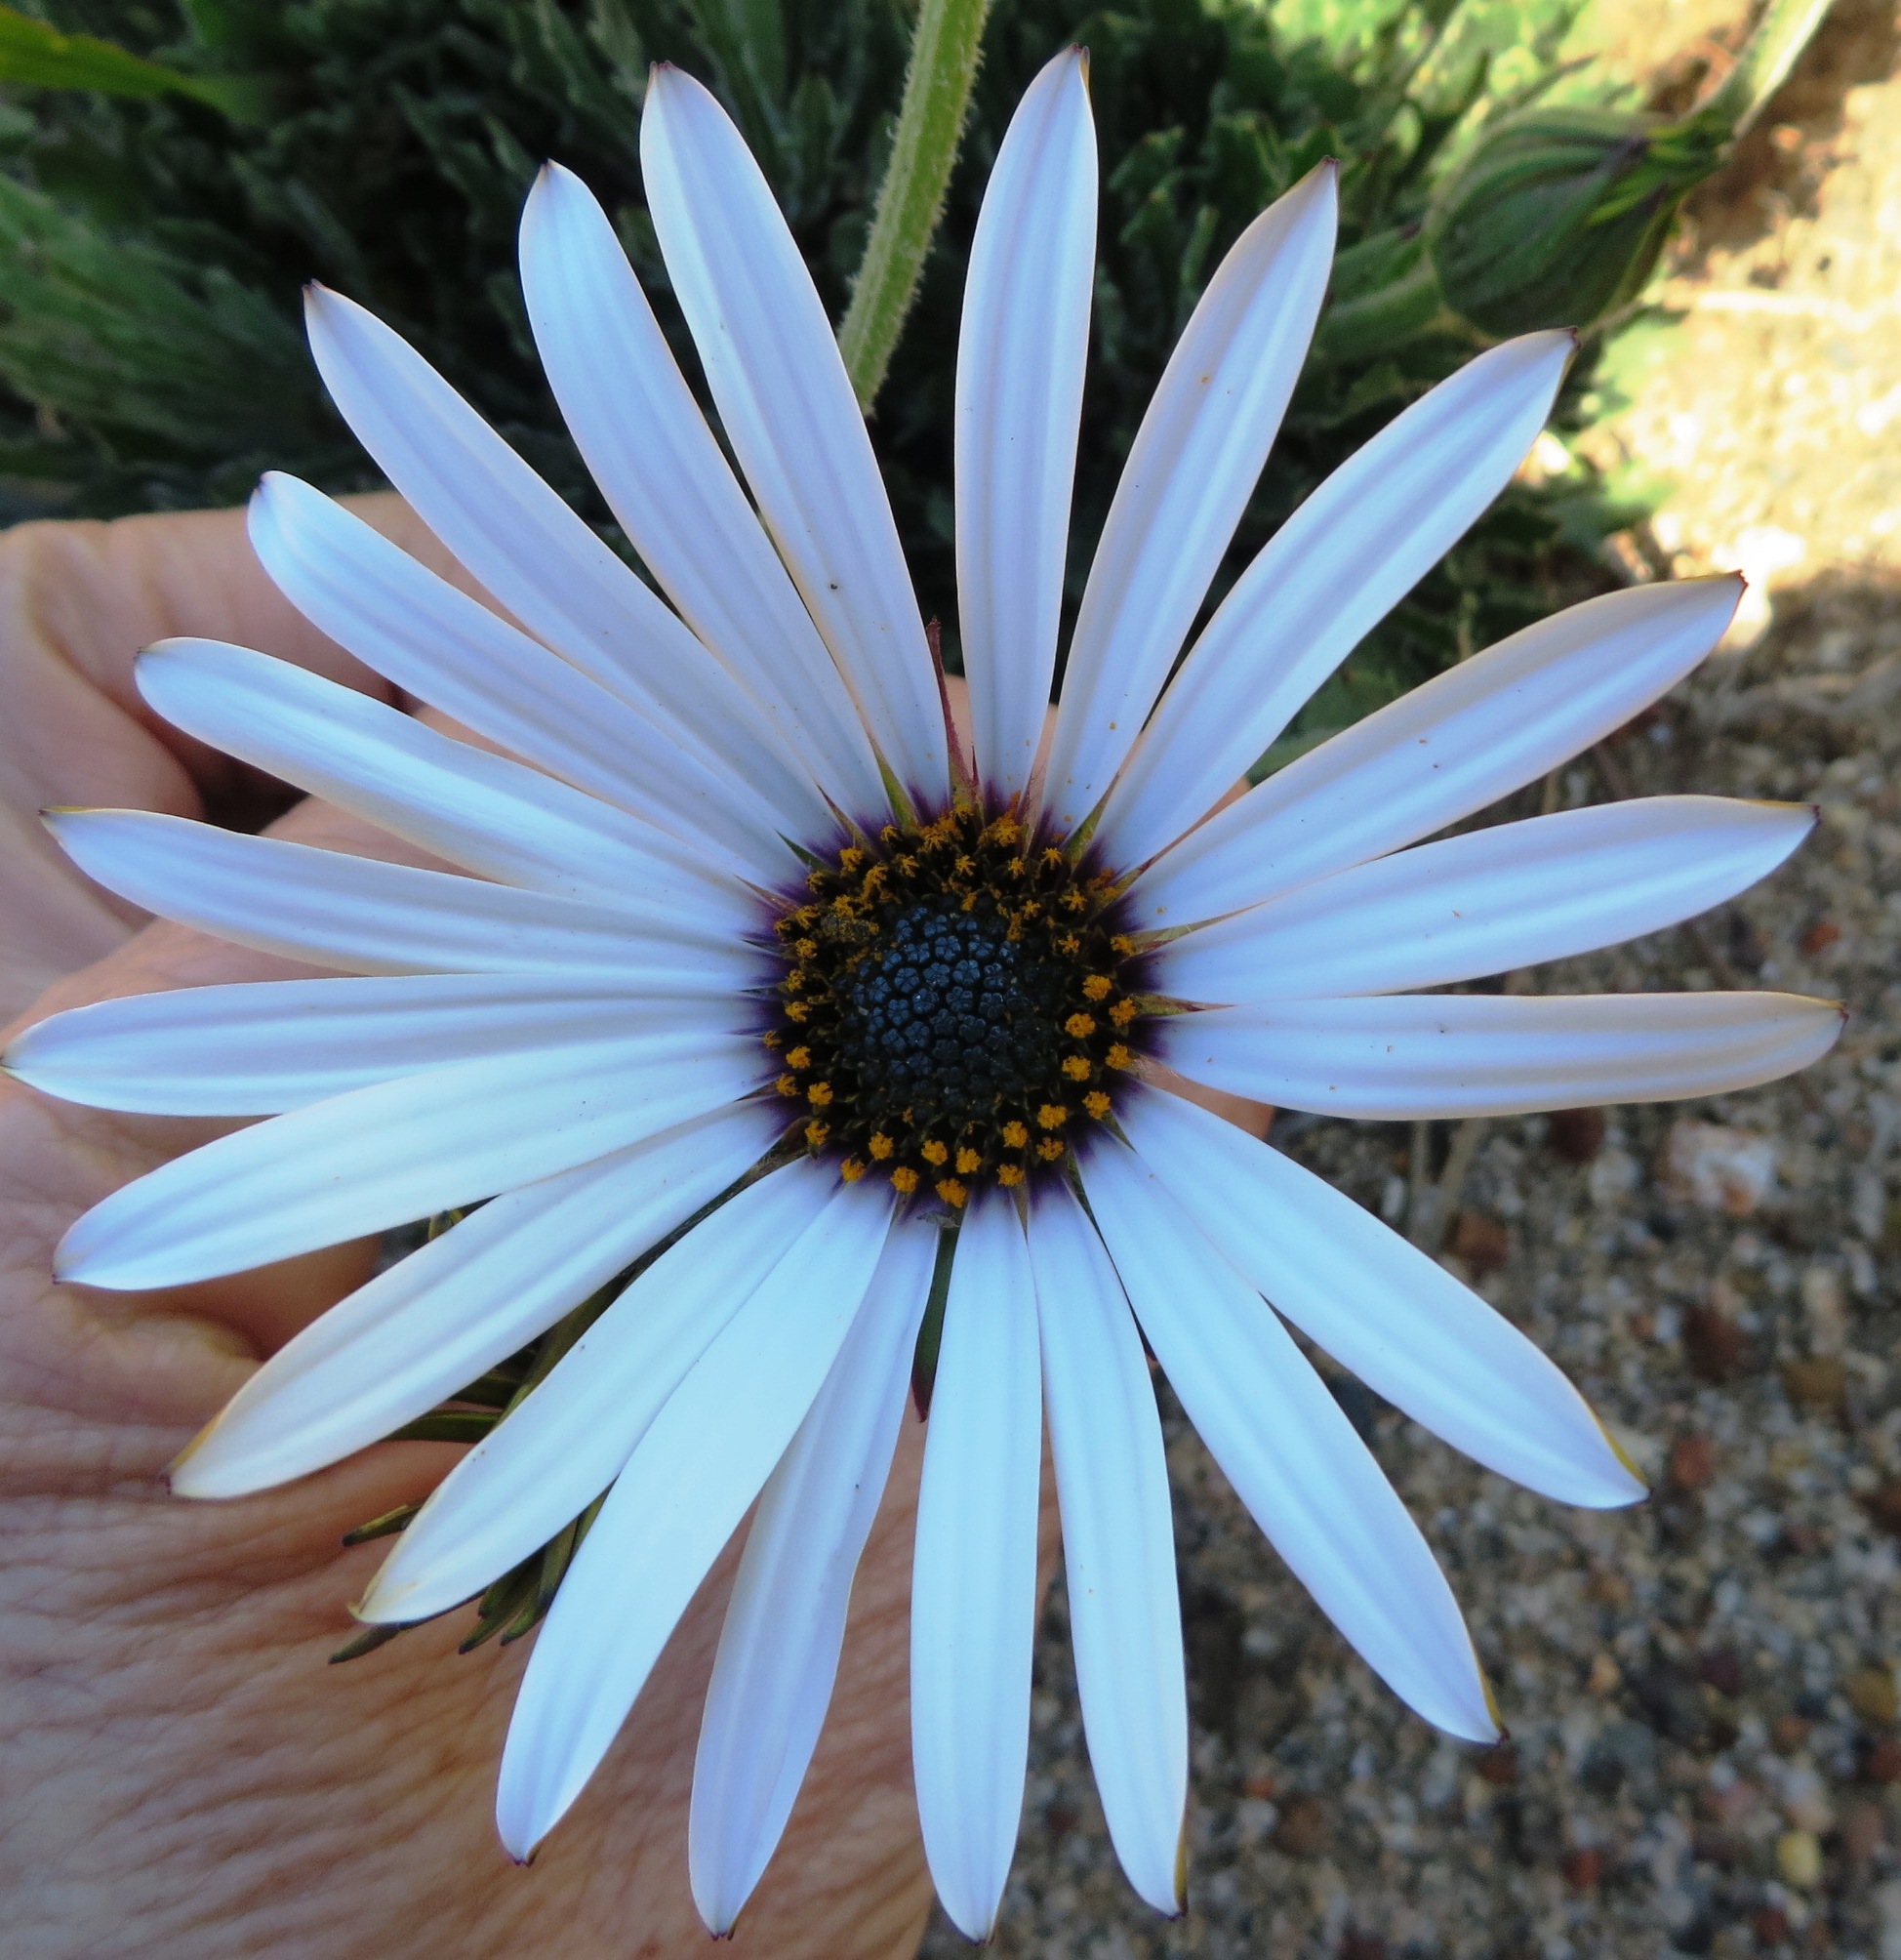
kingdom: Plantae
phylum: Tracheophyta
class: Magnoliopsida
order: Asterales
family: Asteraceae
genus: Dimorphotheca
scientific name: Dimorphotheca nudicaulis
